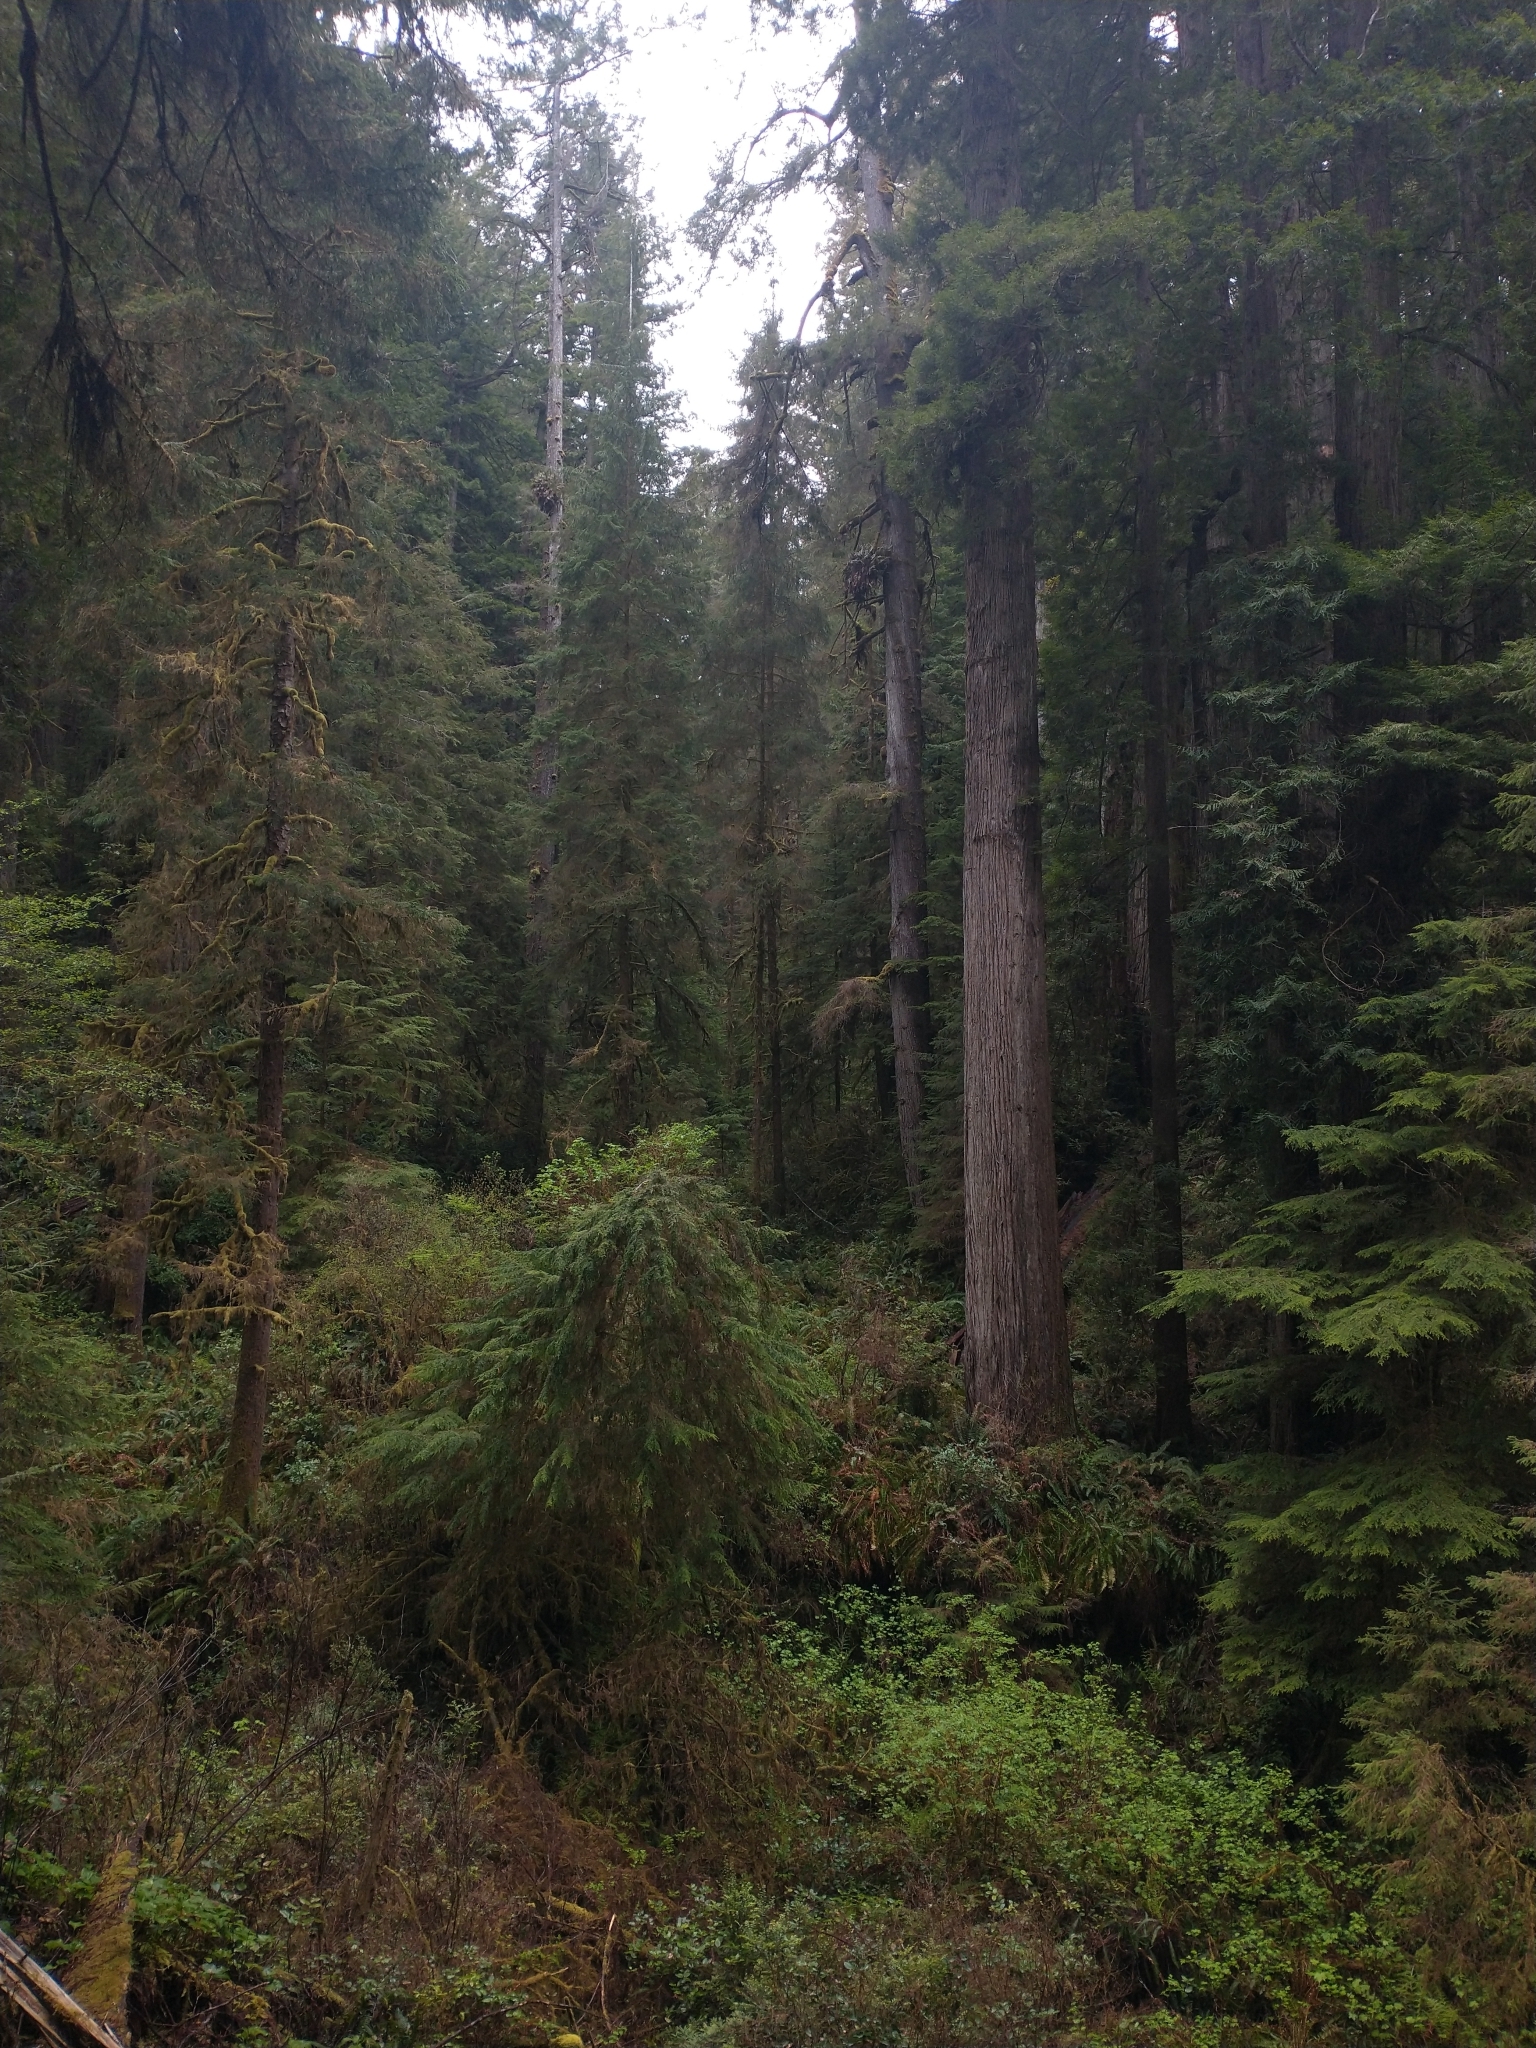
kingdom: Plantae
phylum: Tracheophyta
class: Pinopsida
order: Pinales
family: Pinaceae
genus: Tsuga
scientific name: Tsuga heterophylla
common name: Western hemlock
